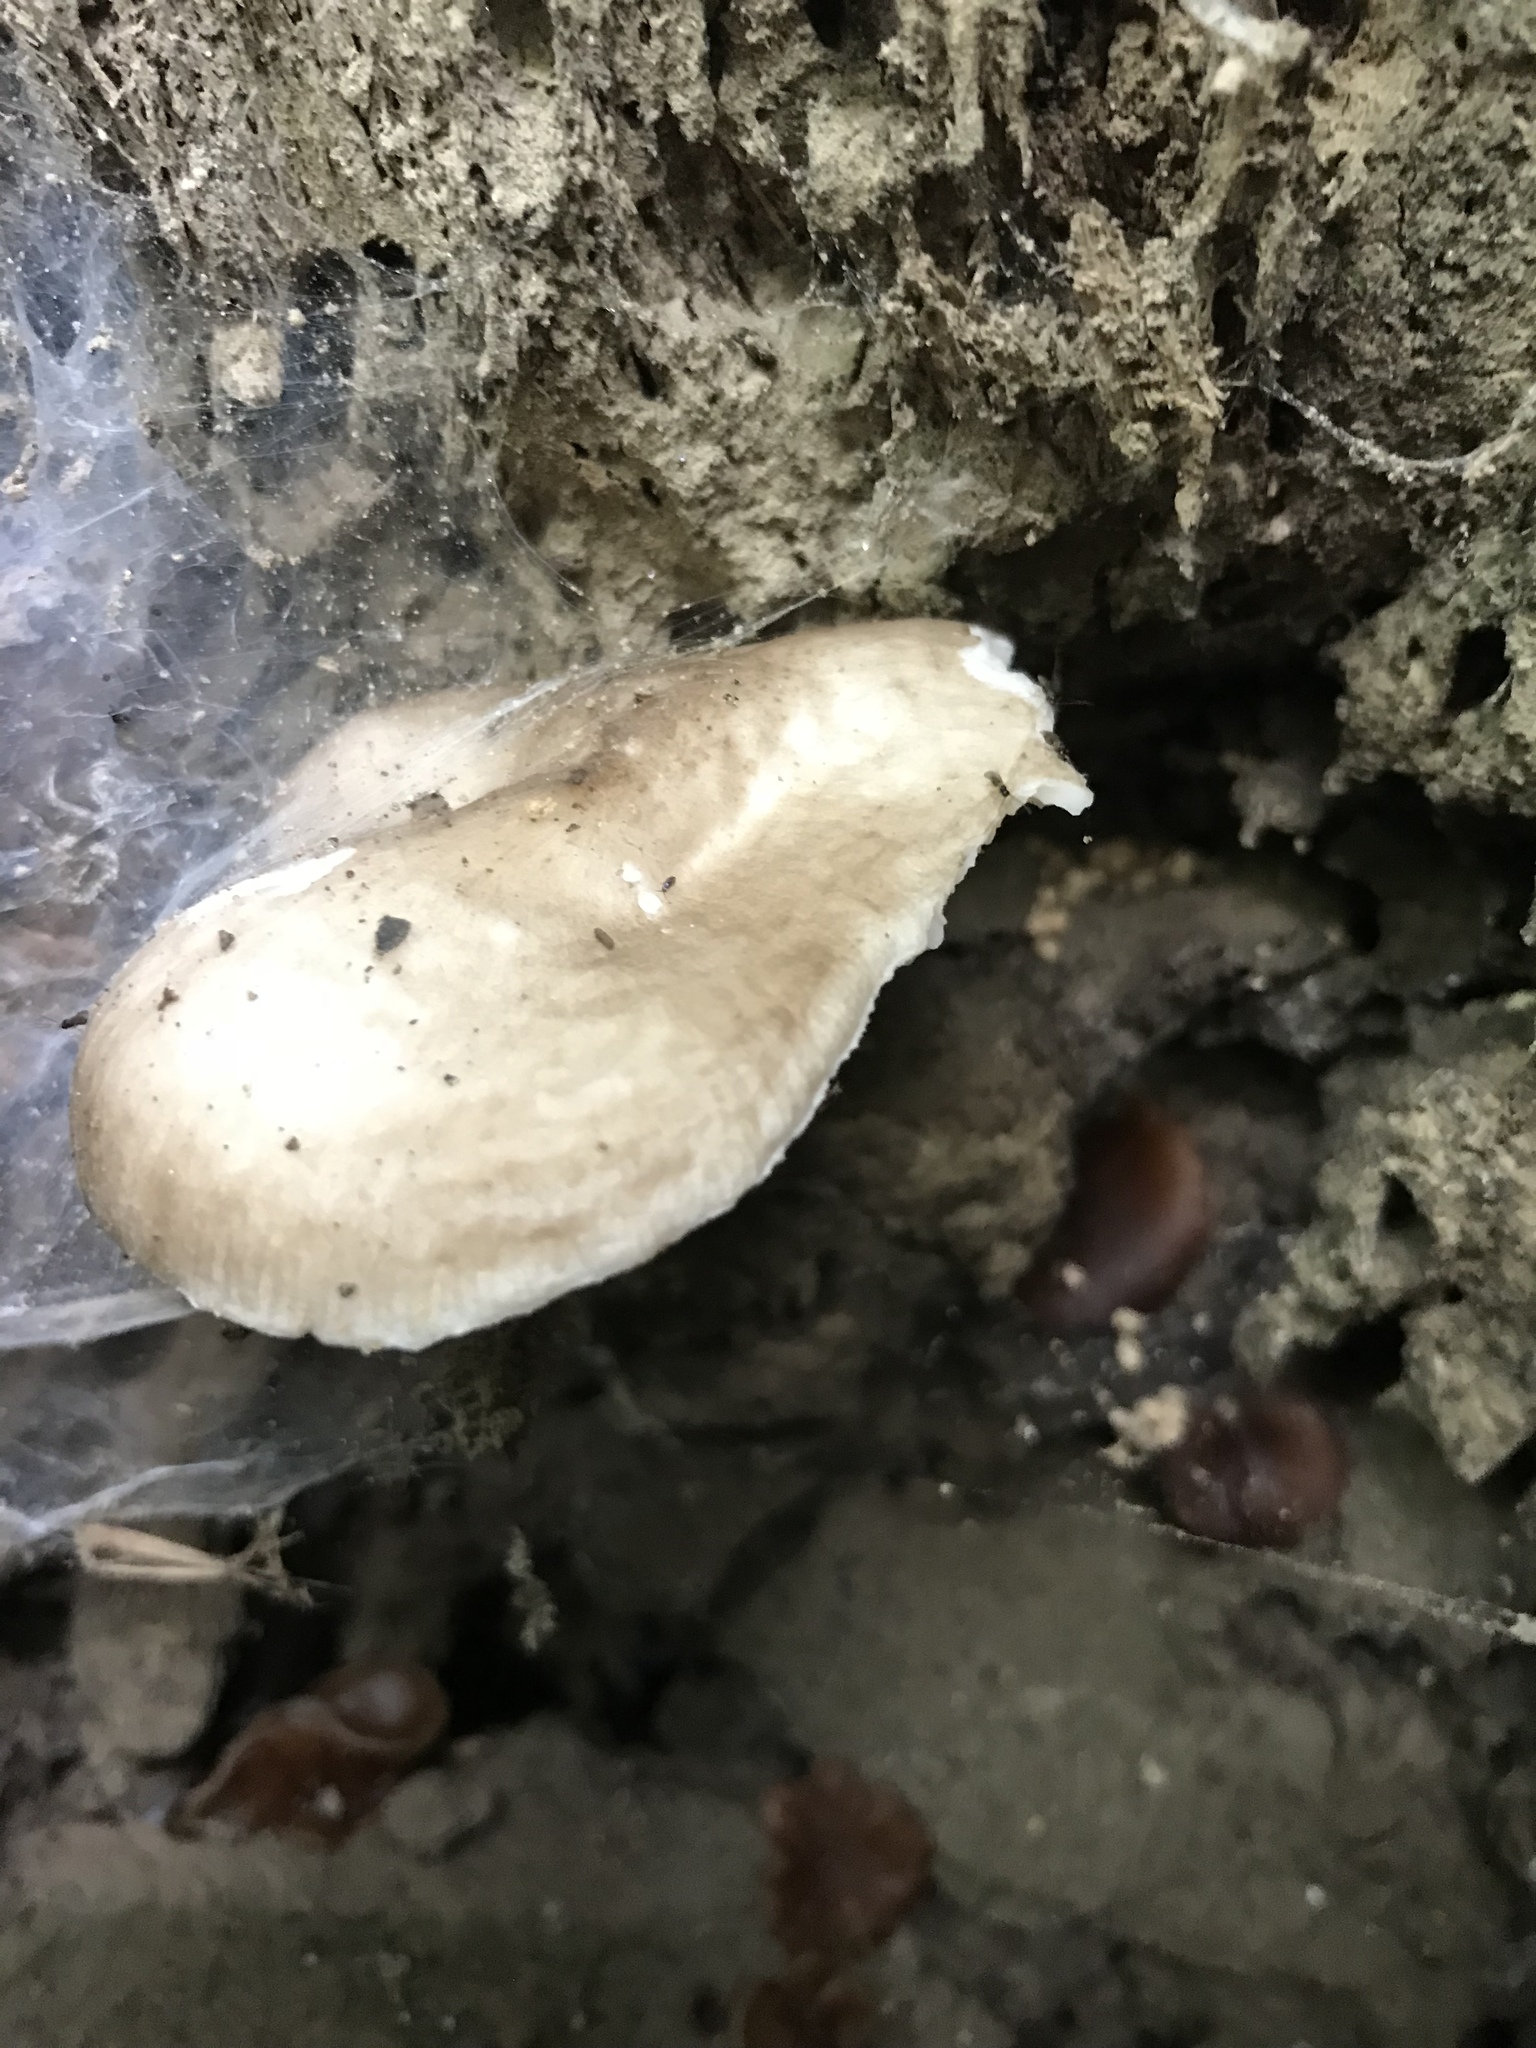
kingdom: Fungi
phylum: Basidiomycota
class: Agaricomycetes
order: Agaricales
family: Pluteaceae
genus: Pluteus
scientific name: Pluteus cervinus
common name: Deer shield
